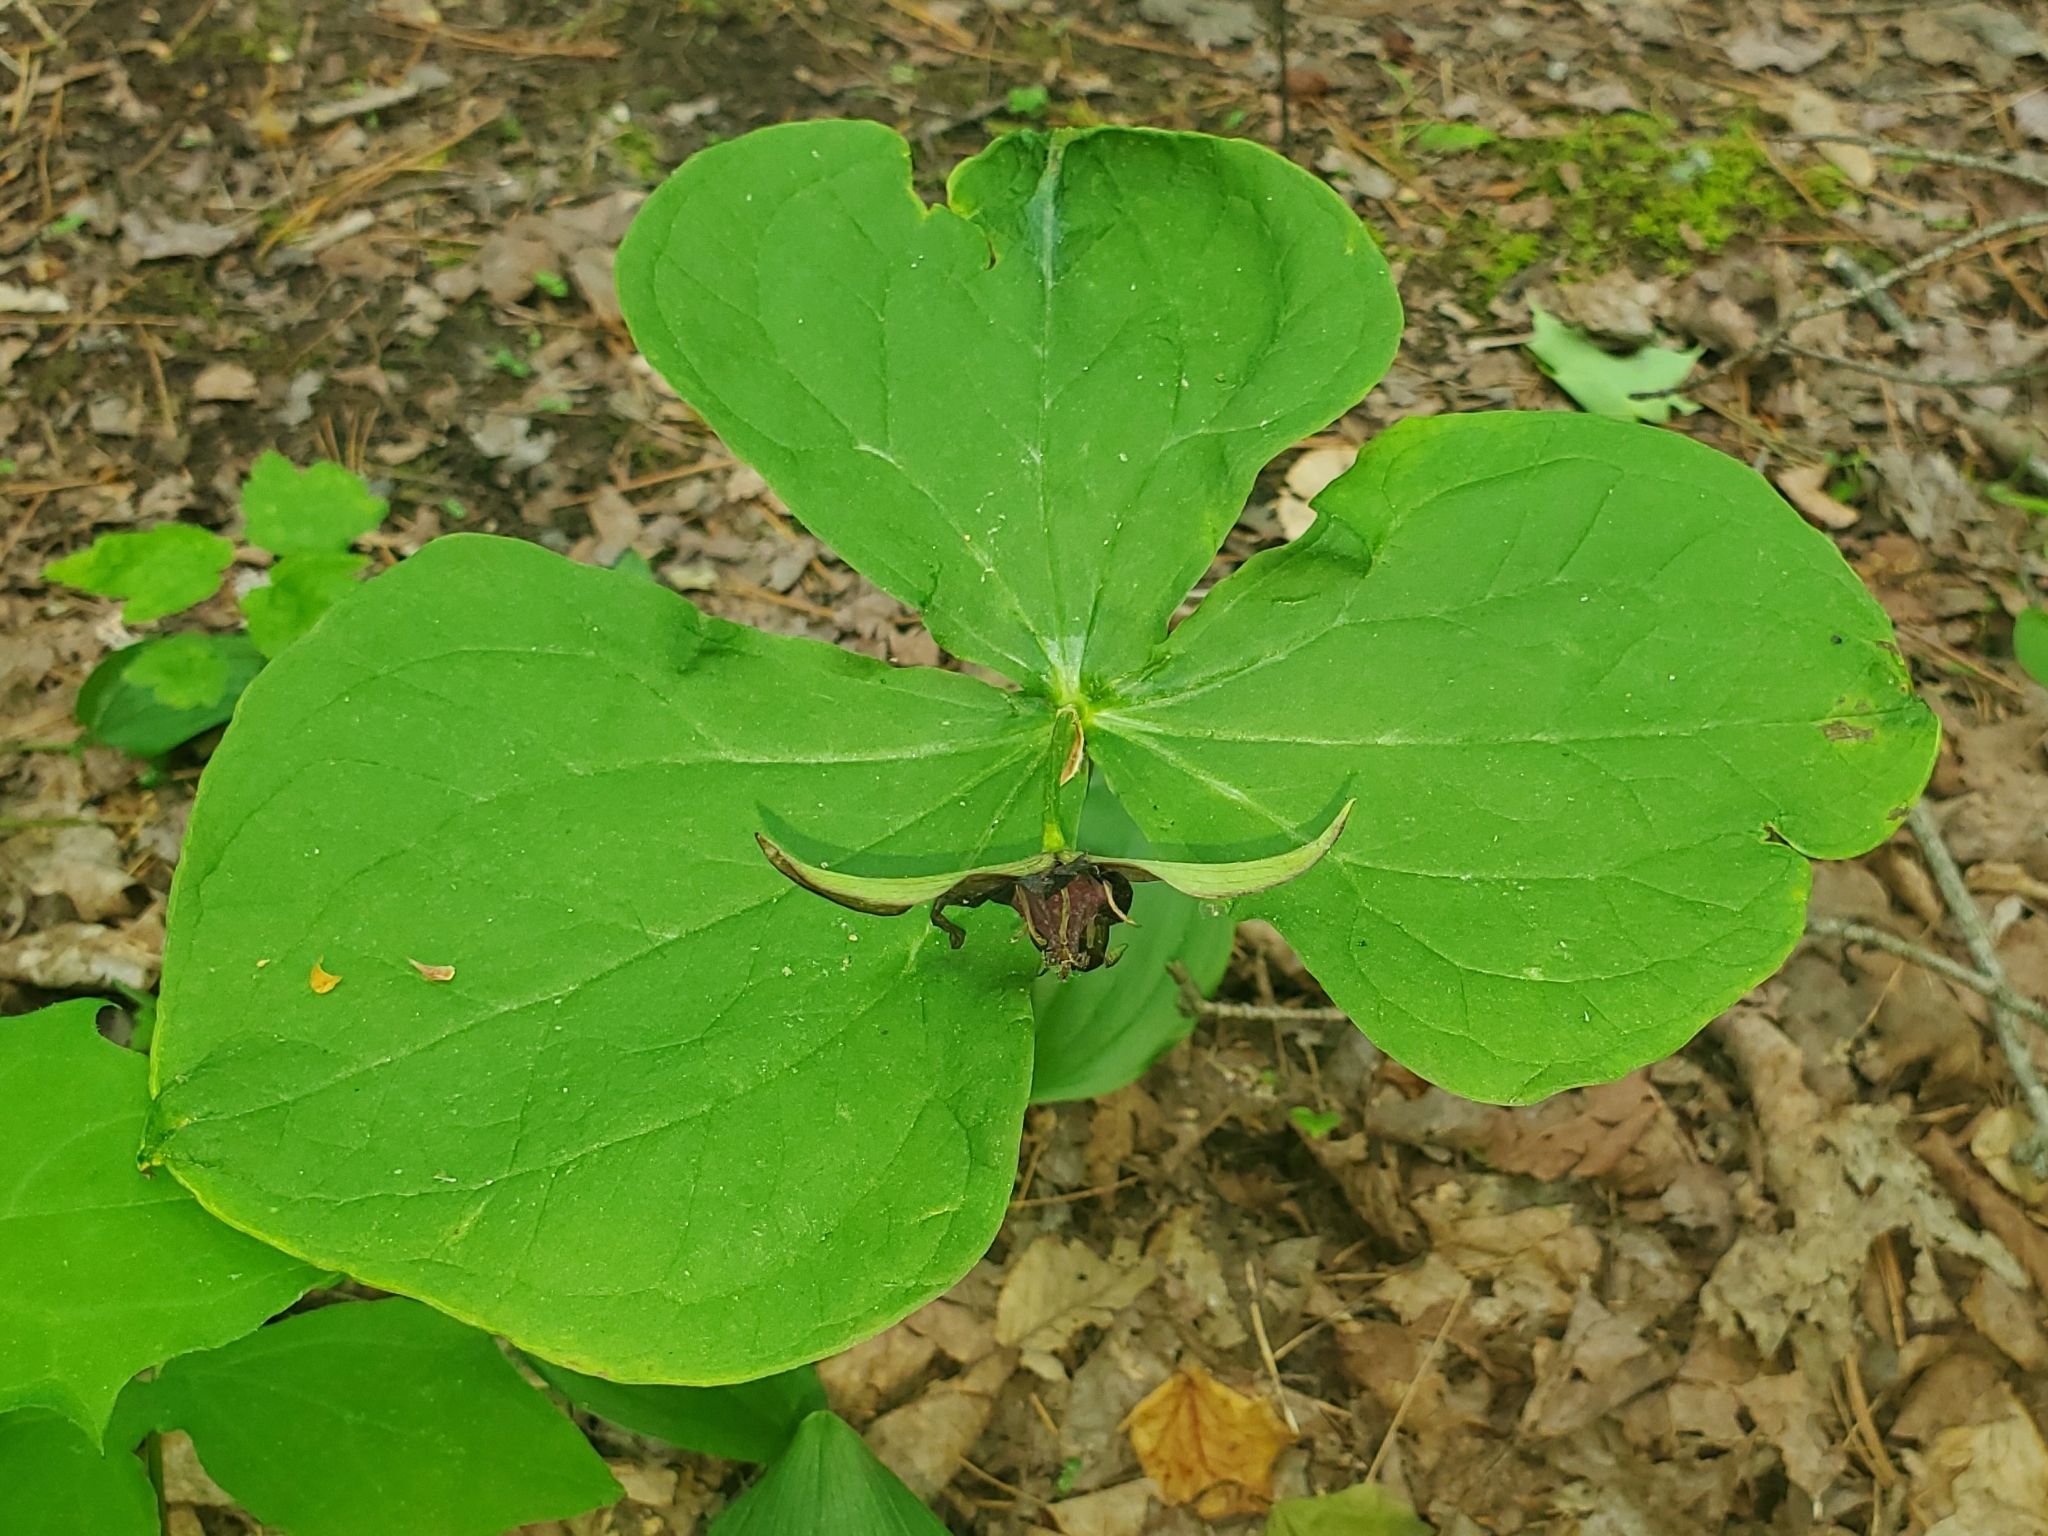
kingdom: Plantae
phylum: Tracheophyta
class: Liliopsida
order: Liliales
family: Melanthiaceae
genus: Trillium
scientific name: Trillium erectum
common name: Purple trillium
